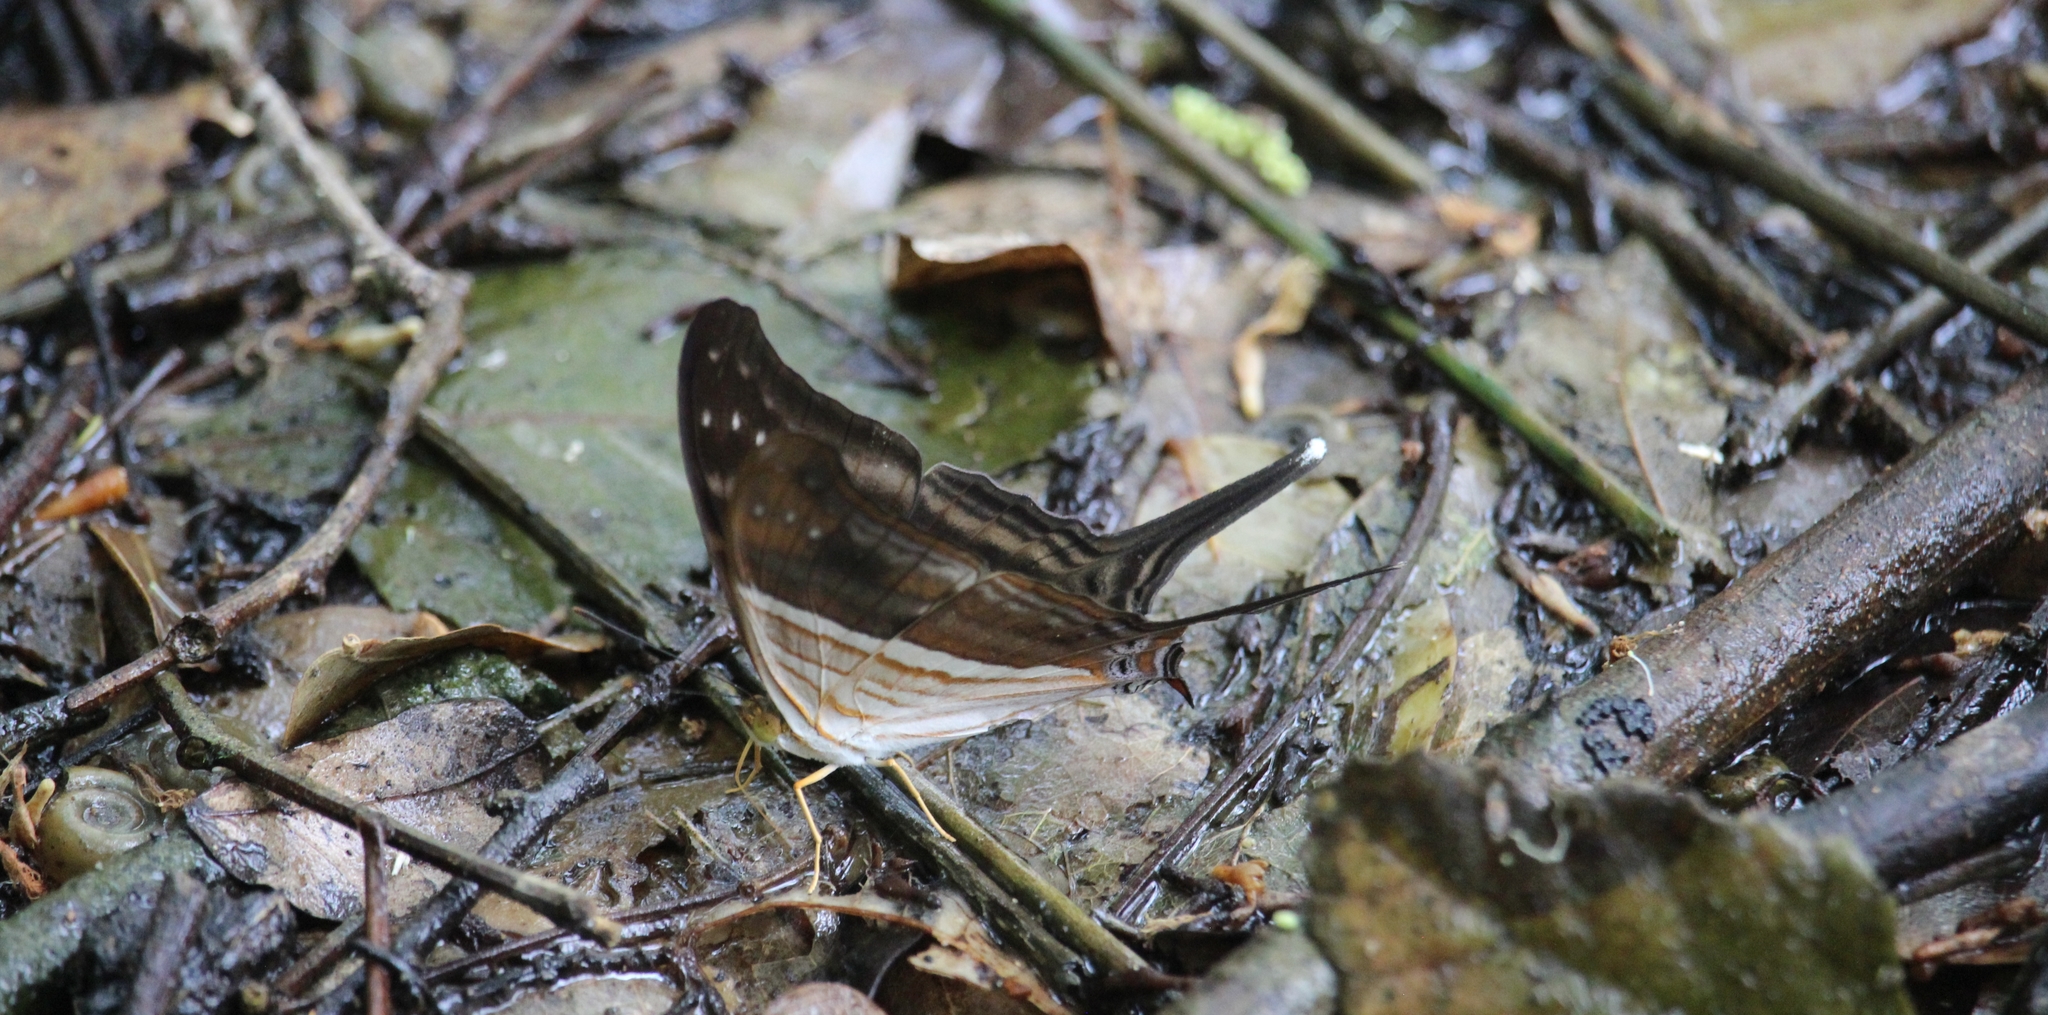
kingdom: Animalia
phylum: Arthropoda
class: Insecta
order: Lepidoptera
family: Nymphalidae
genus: Marpesia
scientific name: Marpesia chiron
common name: Many-banded daggerwing
